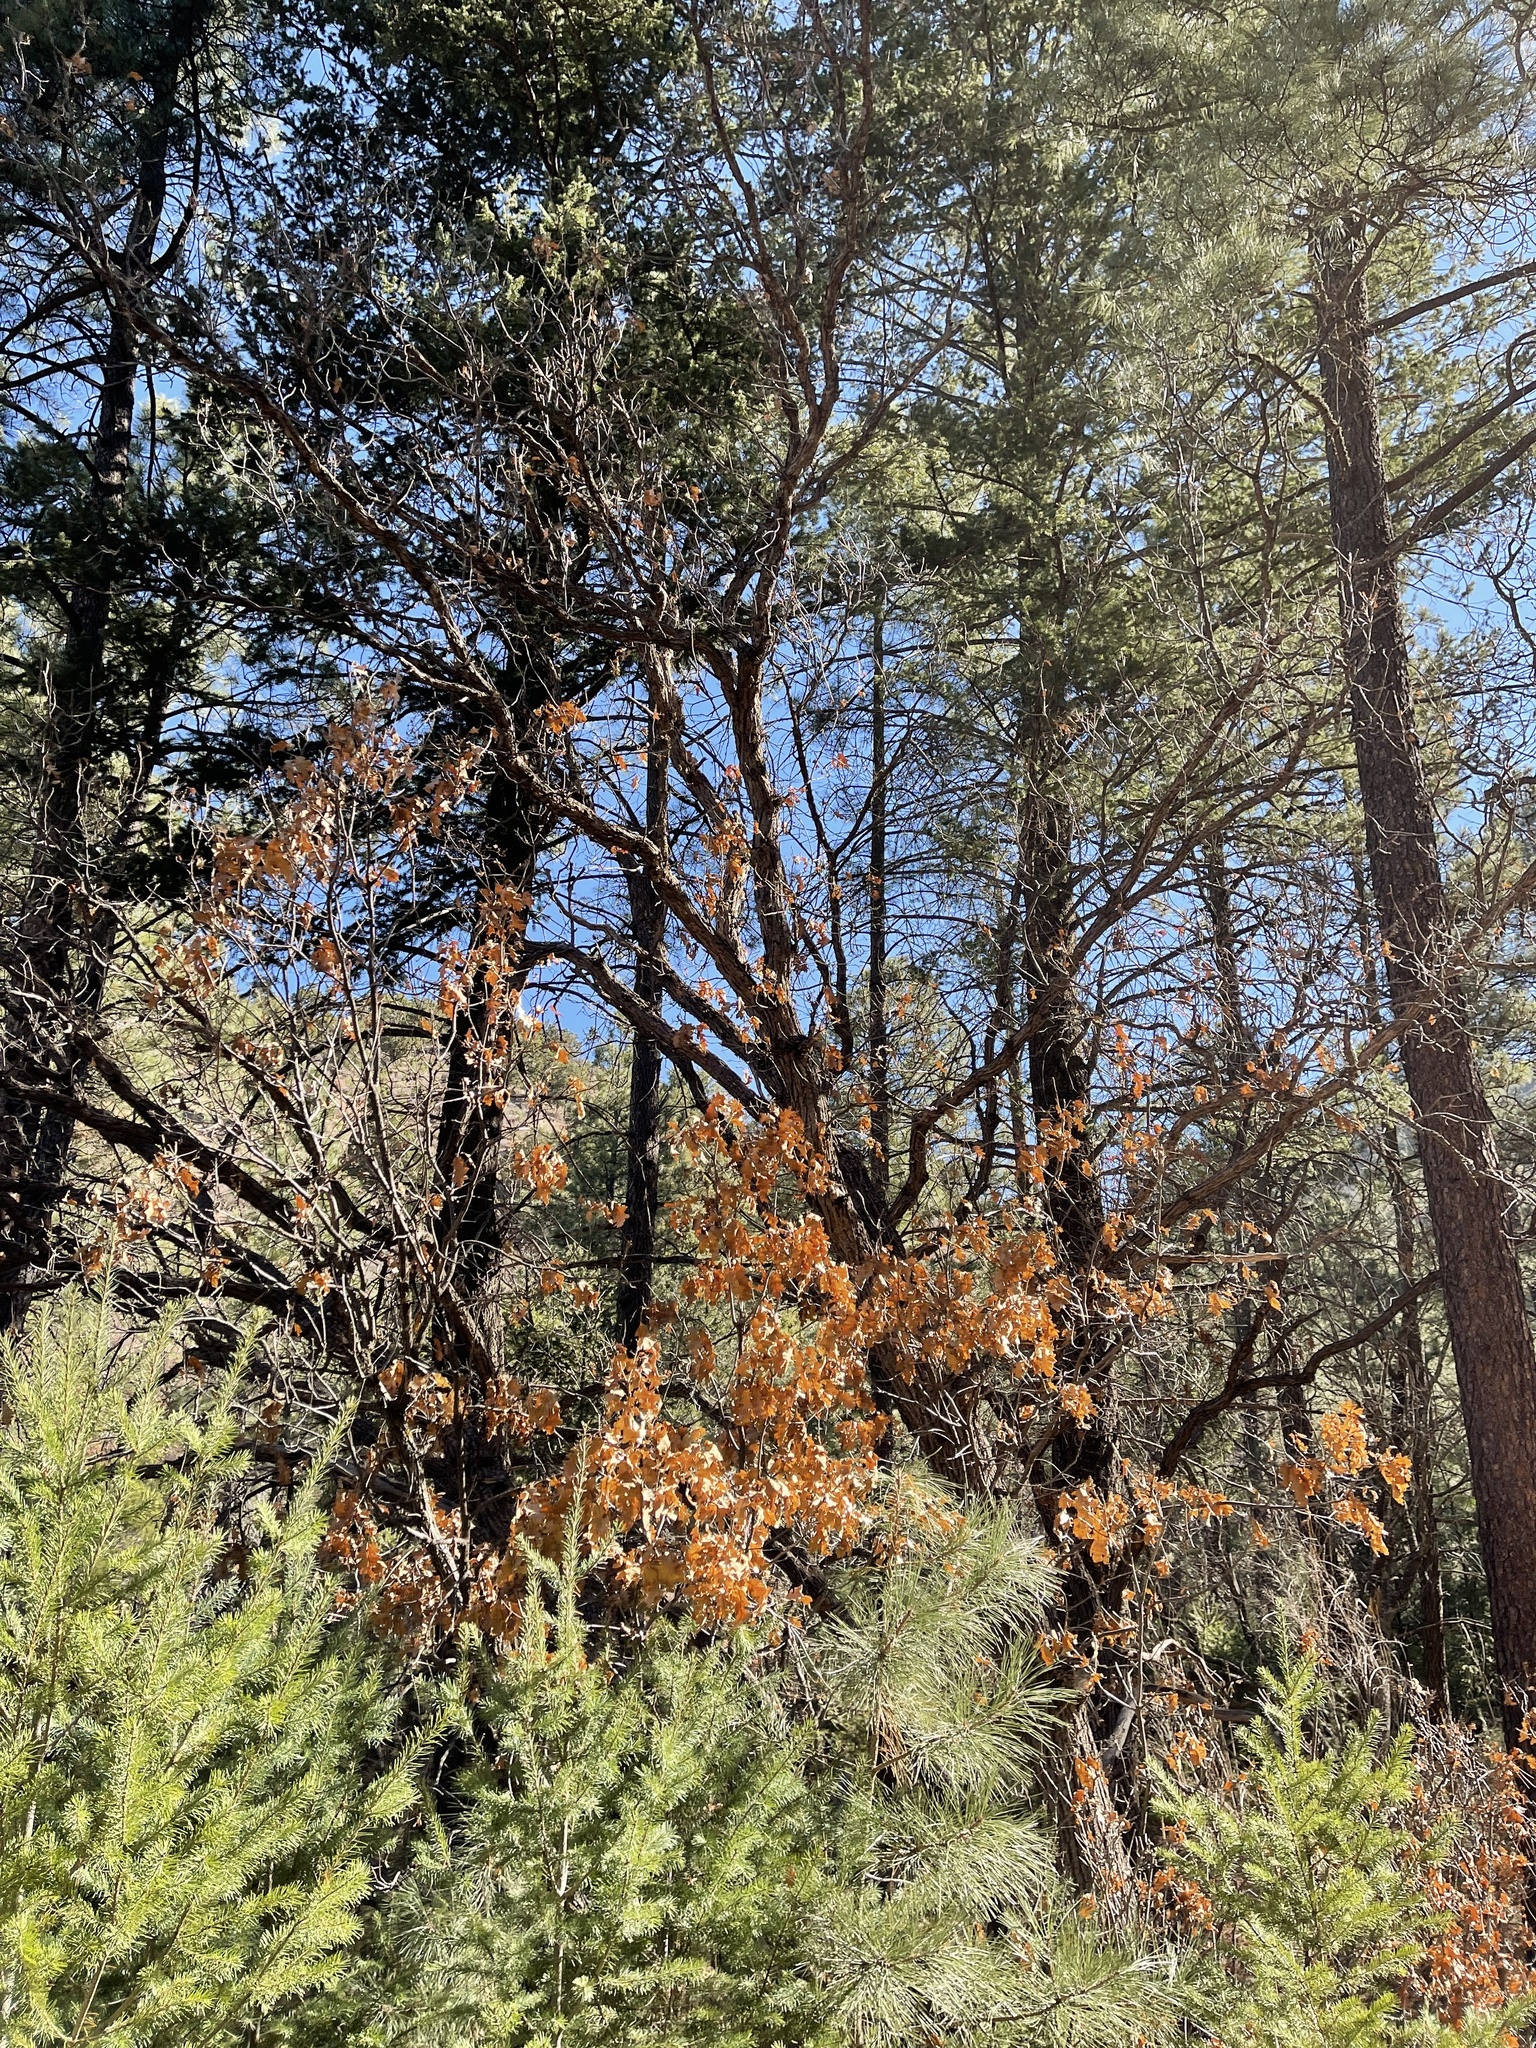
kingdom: Plantae
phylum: Tracheophyta
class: Magnoliopsida
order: Fagales
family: Fagaceae
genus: Quercus
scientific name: Quercus gambelii
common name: Gambel oak
